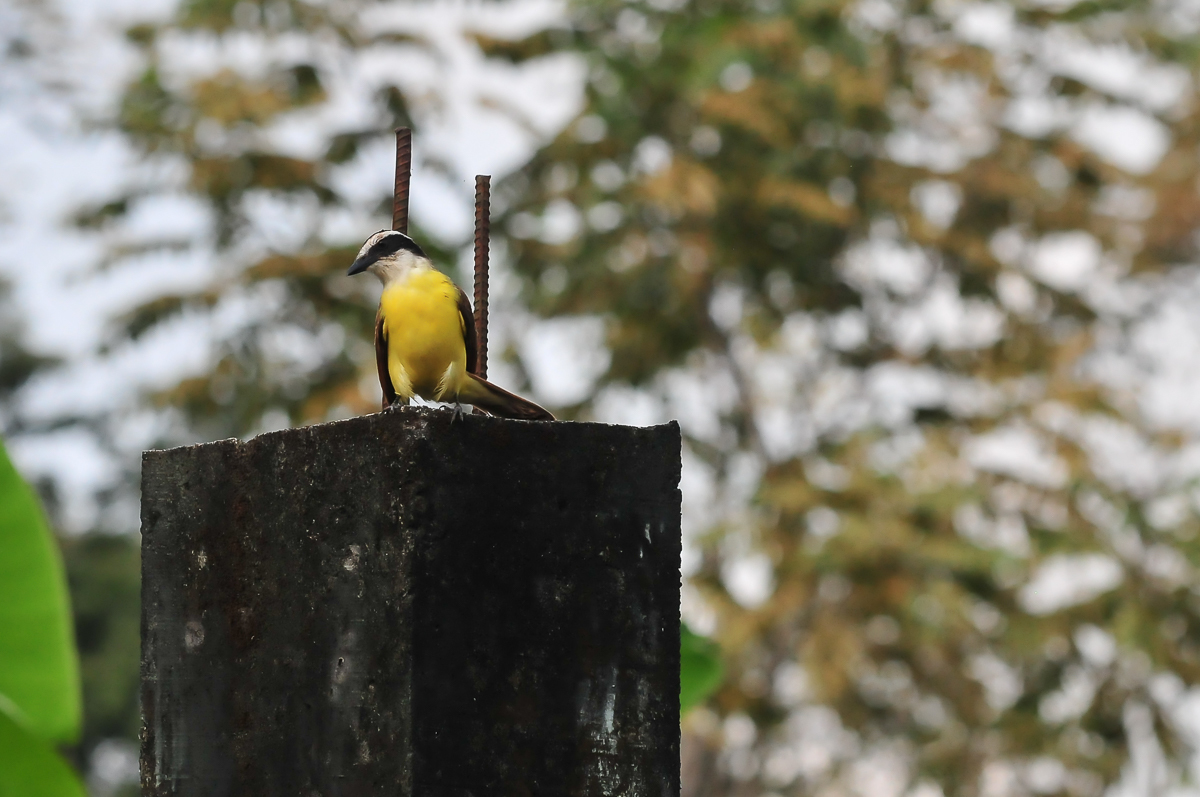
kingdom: Animalia
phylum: Chordata
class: Aves
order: Passeriformes
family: Tyrannidae
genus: Pitangus
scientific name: Pitangus sulphuratus
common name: Great kiskadee
